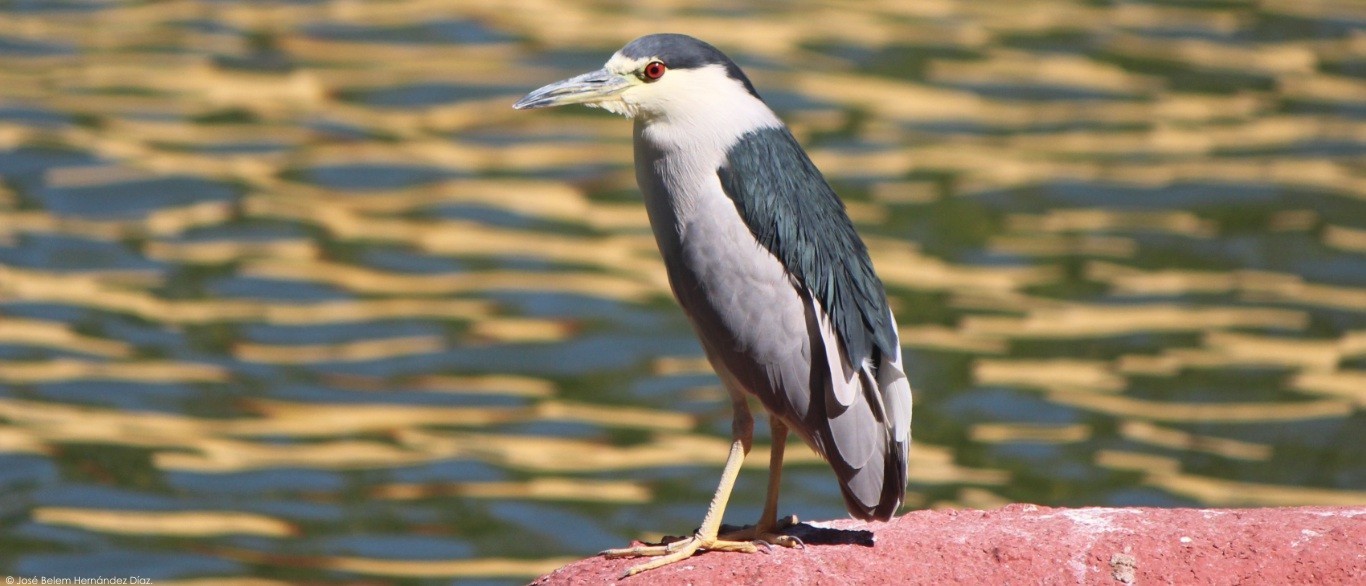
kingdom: Animalia
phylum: Chordata
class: Aves
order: Pelecaniformes
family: Ardeidae
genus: Nycticorax
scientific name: Nycticorax nycticorax
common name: Black-crowned night heron
